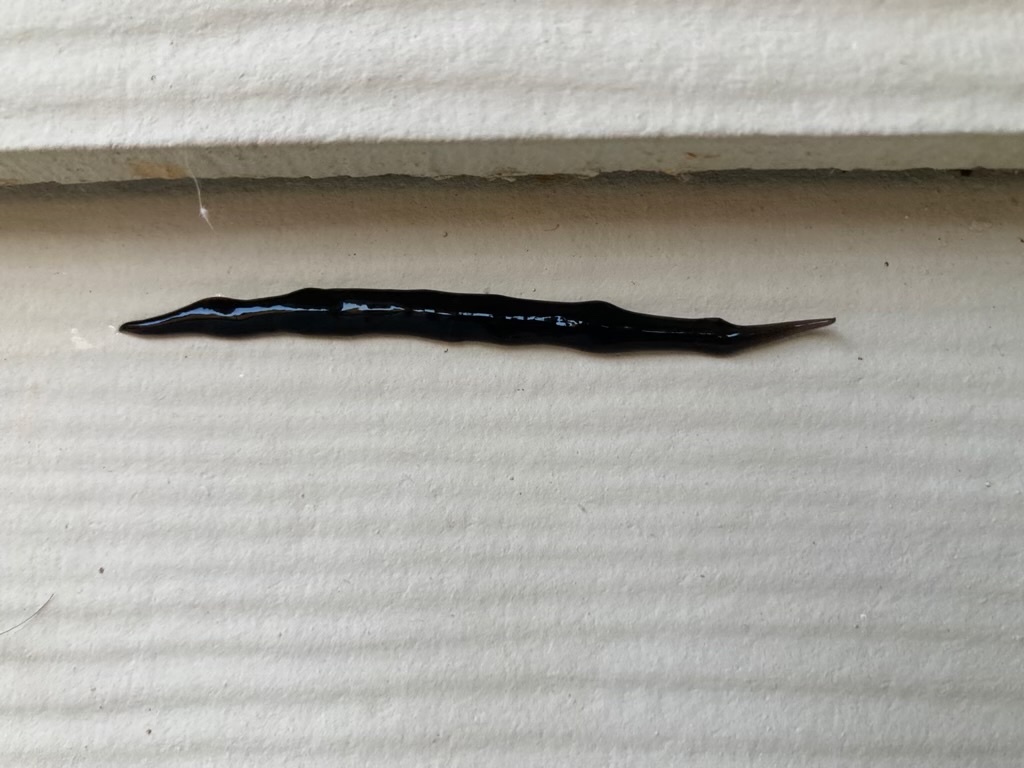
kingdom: Animalia
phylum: Platyhelminthes
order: Tricladida
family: Geoplanidae
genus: Platydemus
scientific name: Platydemus manokwari
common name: New guinea flatworm
